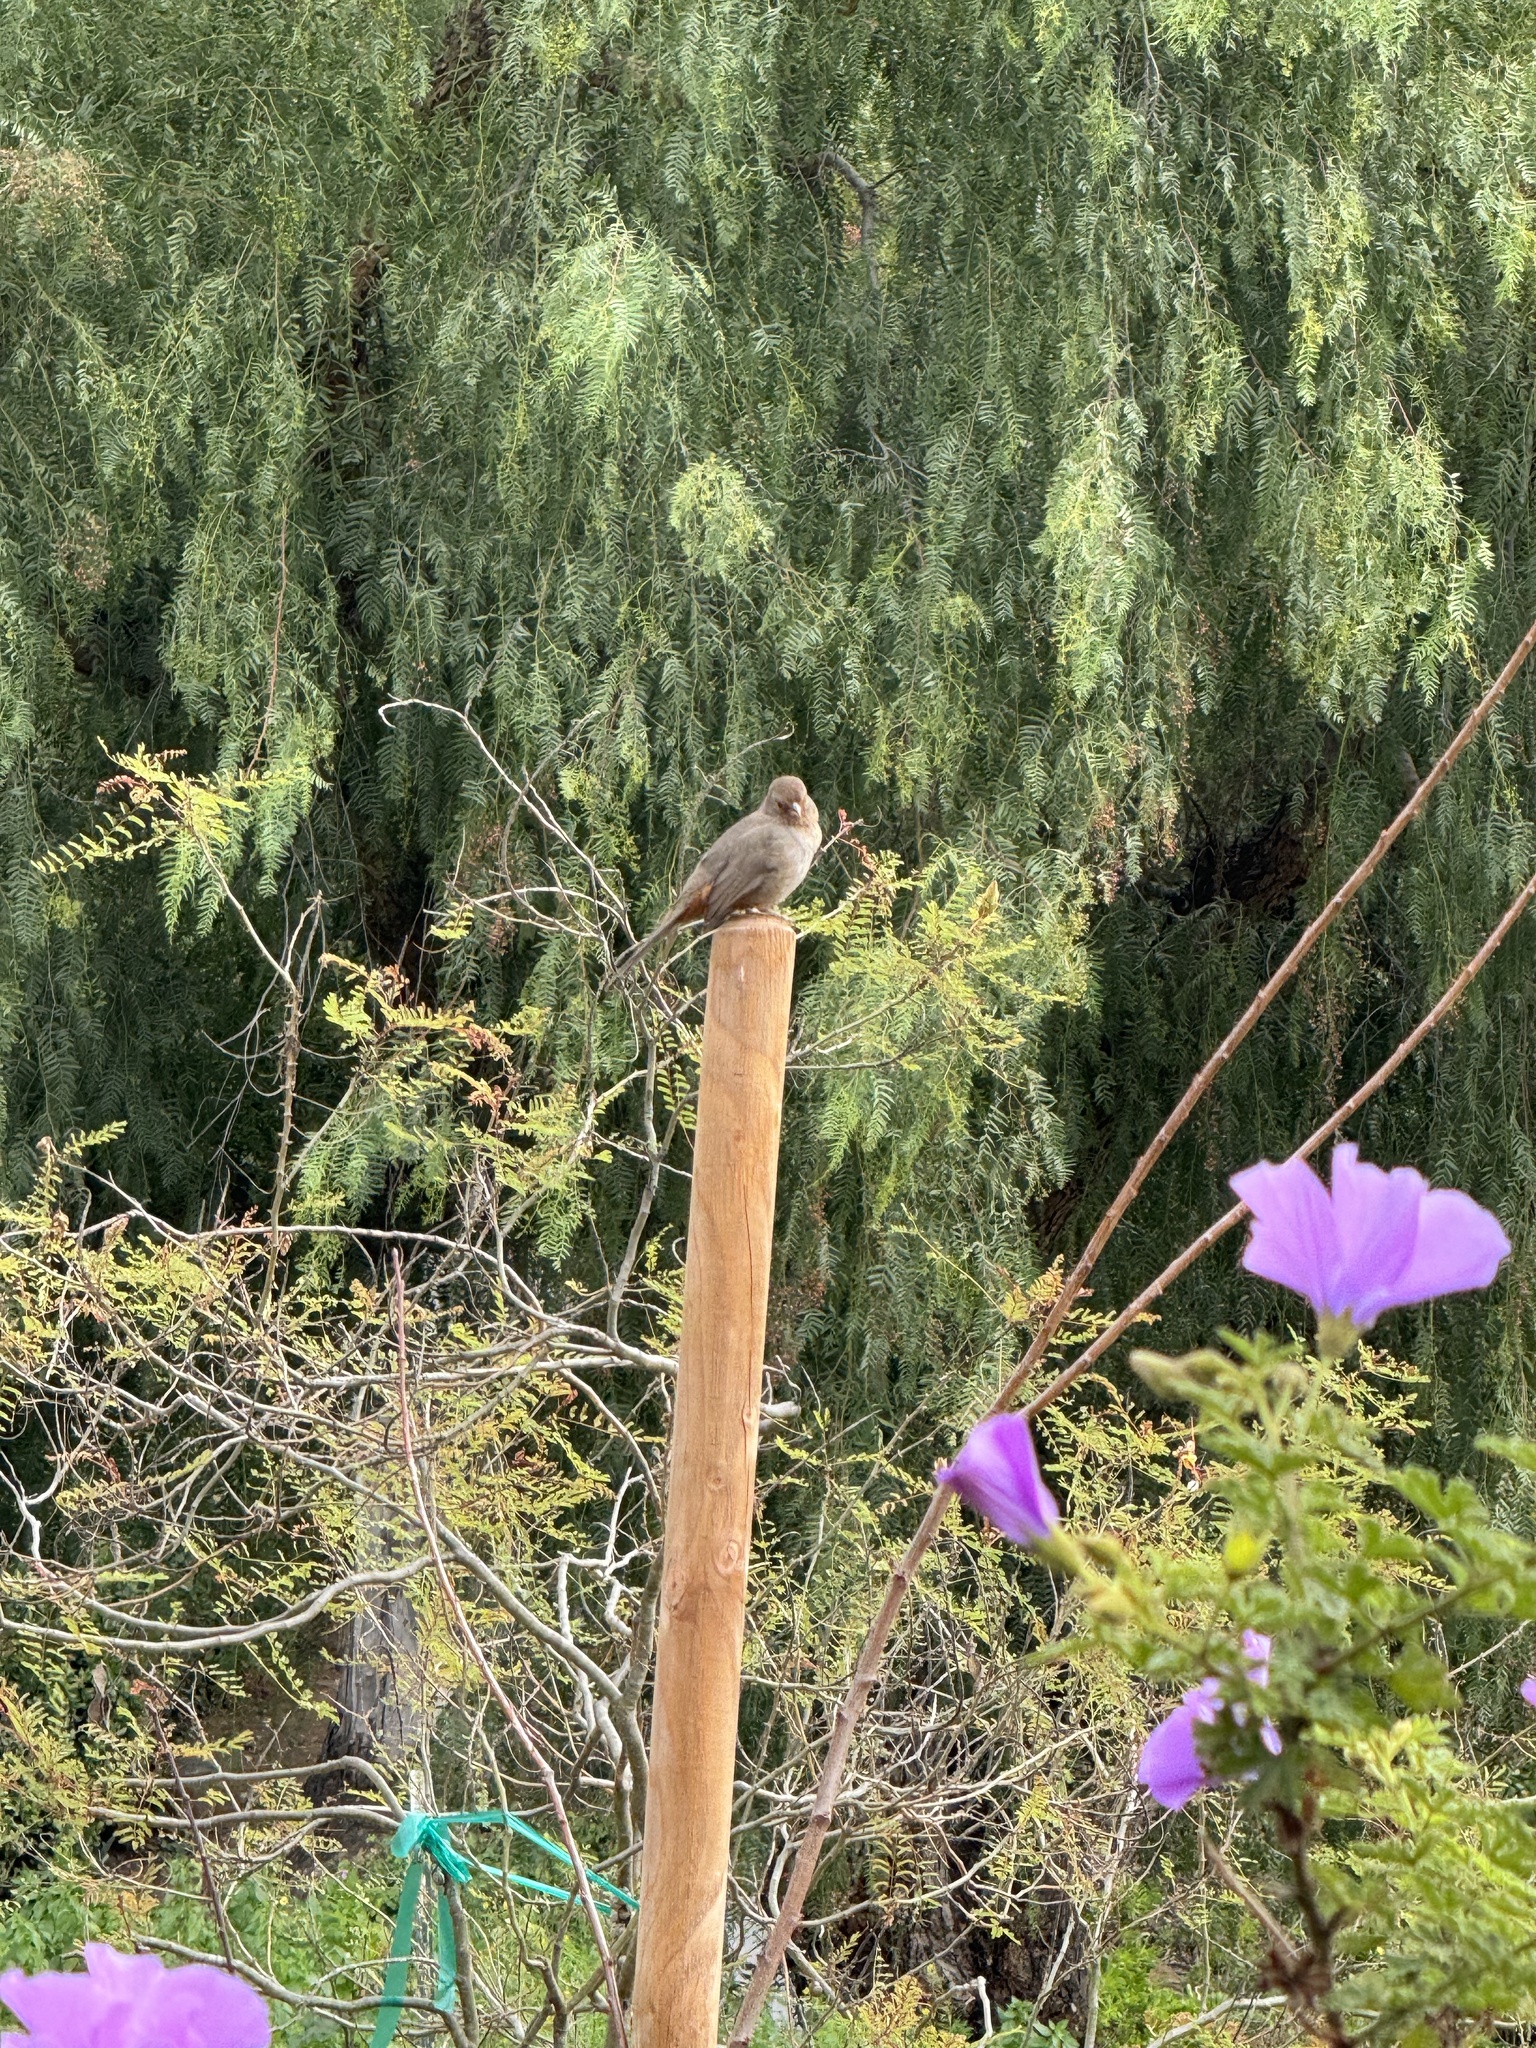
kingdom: Animalia
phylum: Chordata
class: Aves
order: Passeriformes
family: Passerellidae
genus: Melozone
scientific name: Melozone crissalis
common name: California towhee
